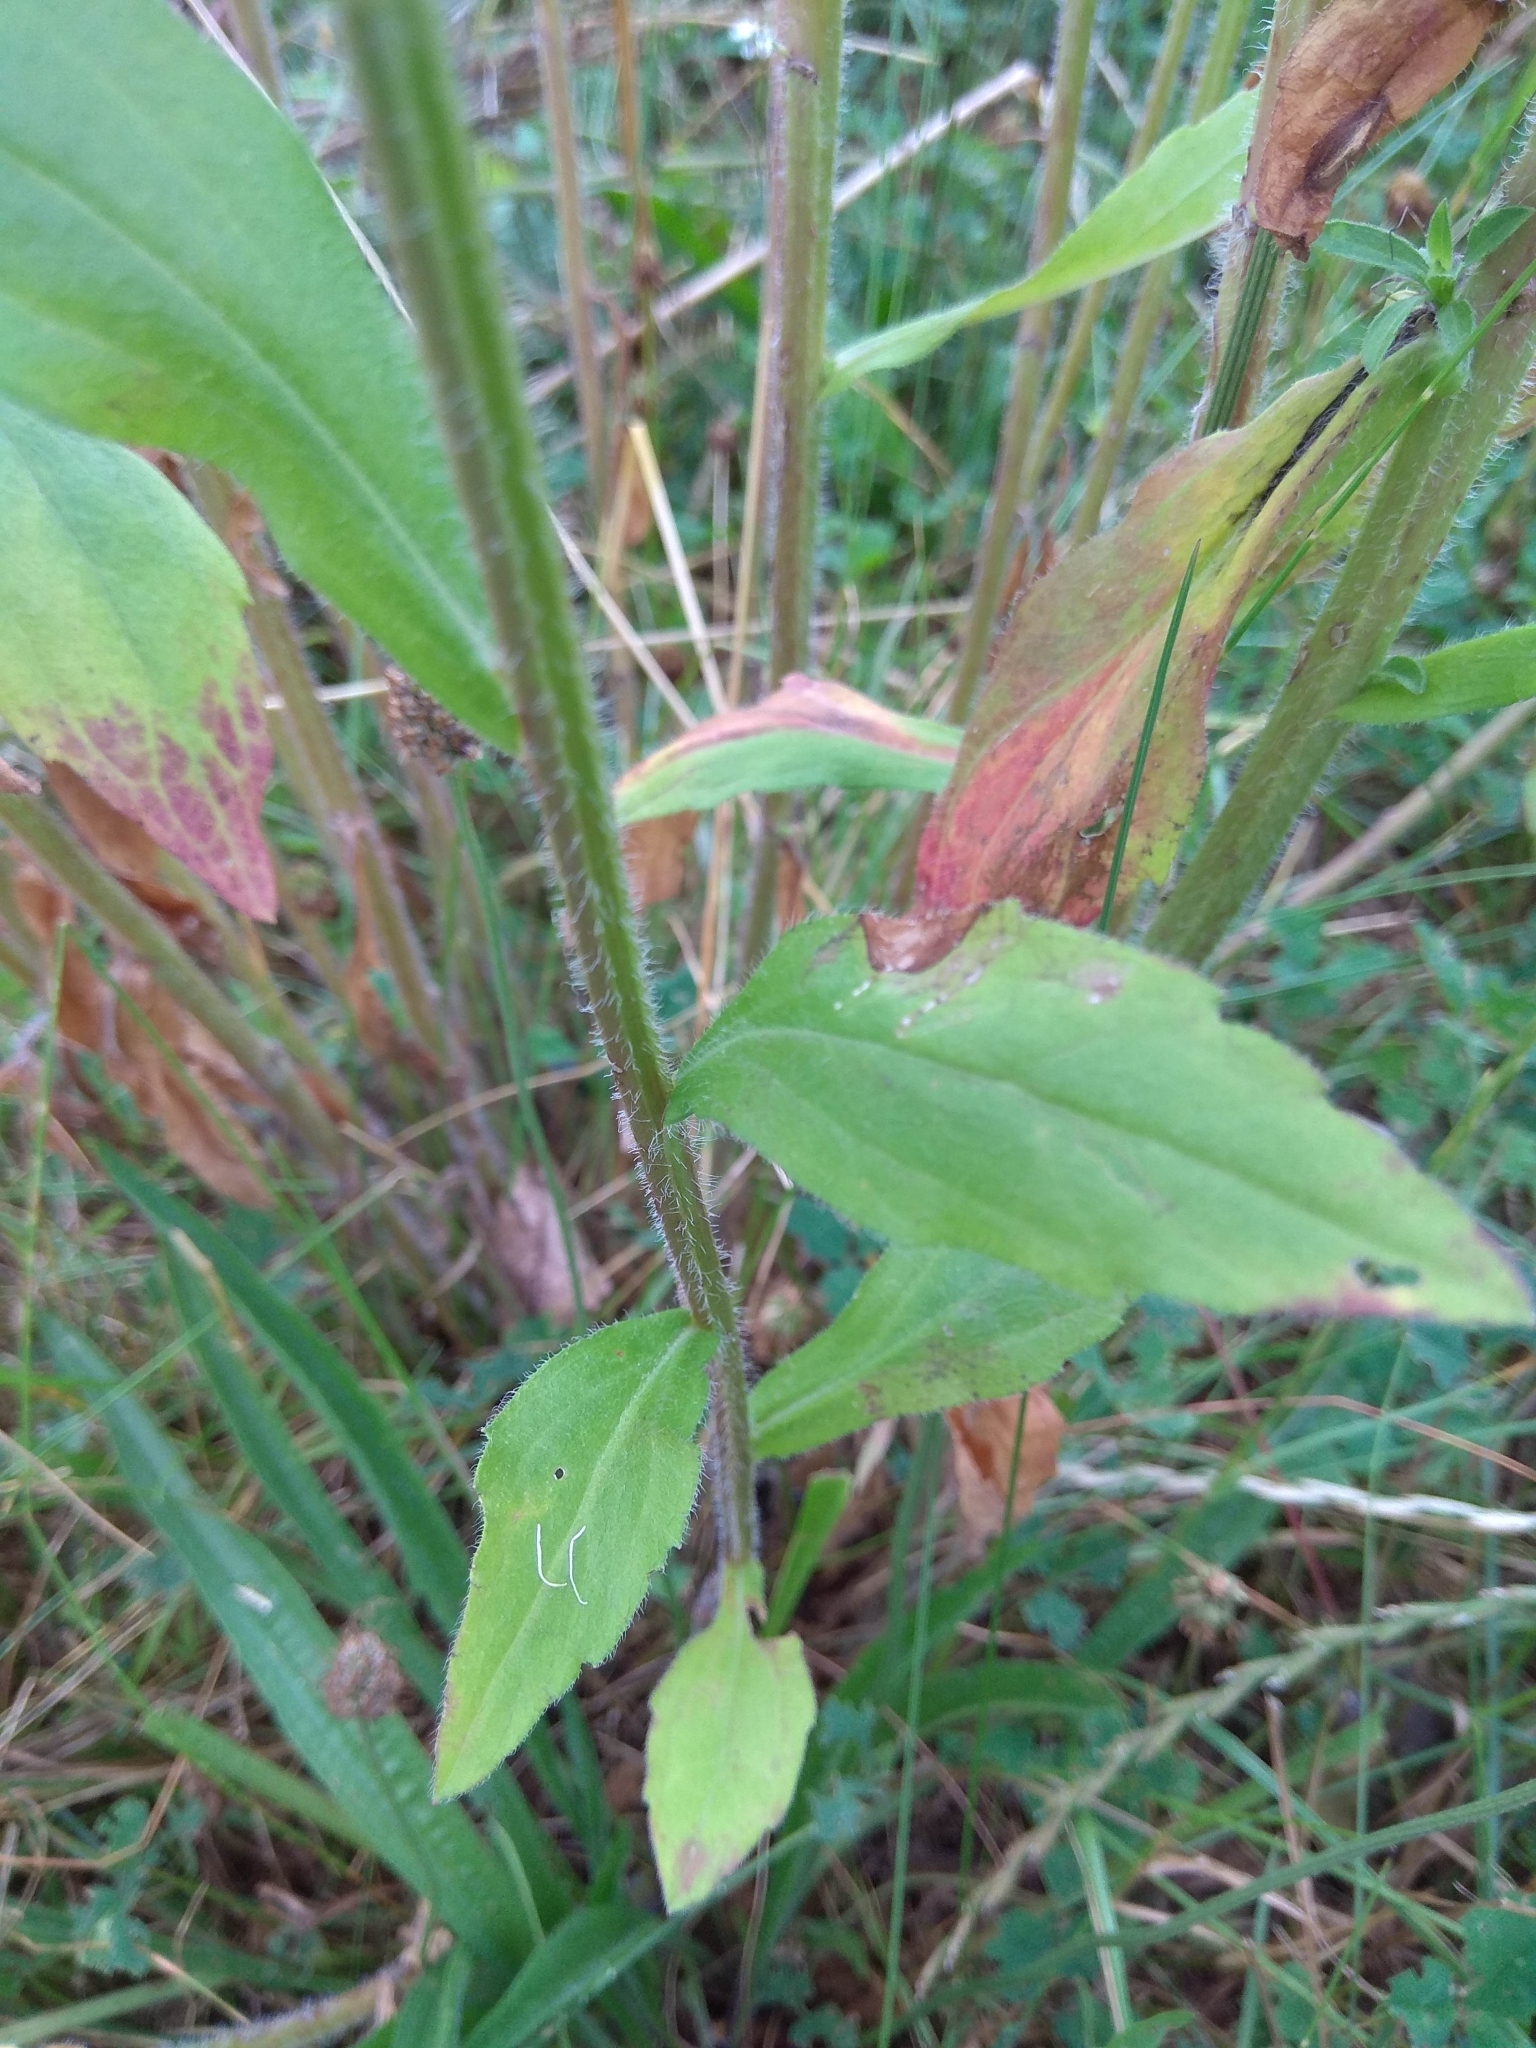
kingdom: Plantae
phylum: Tracheophyta
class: Magnoliopsida
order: Asterales
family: Asteraceae
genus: Erigeron
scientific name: Erigeron annuus
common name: Tall fleabane
